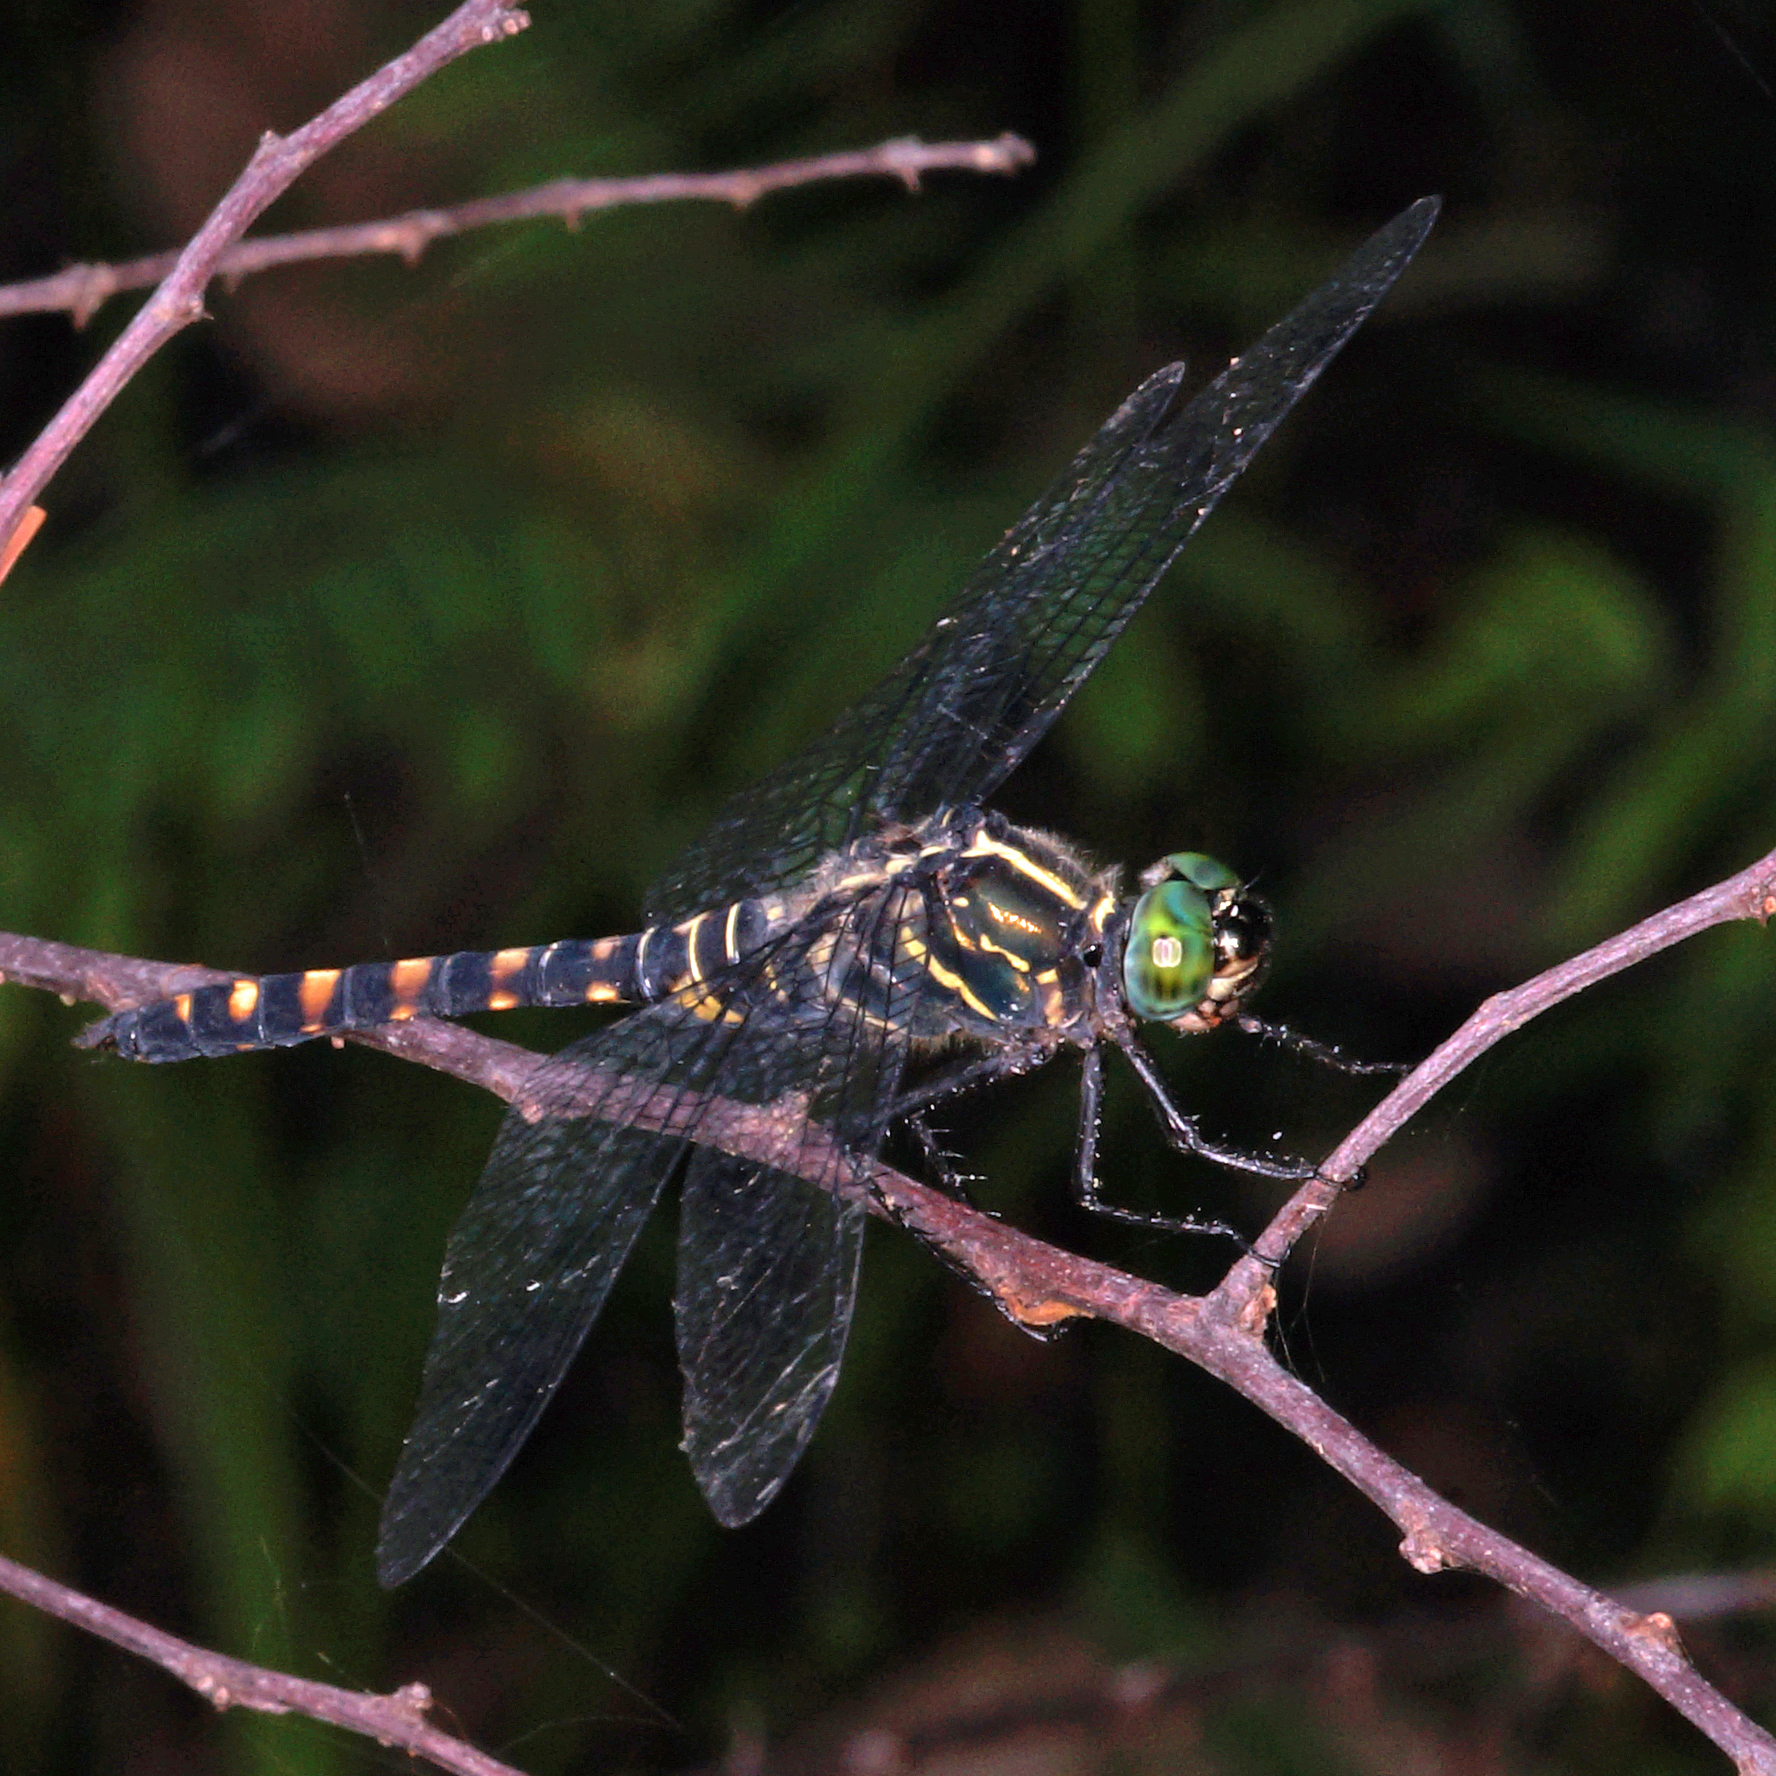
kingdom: Animalia
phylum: Arthropoda
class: Insecta
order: Odonata
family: Libellulidae
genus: Onychothemis
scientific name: Onychothemis testacea
